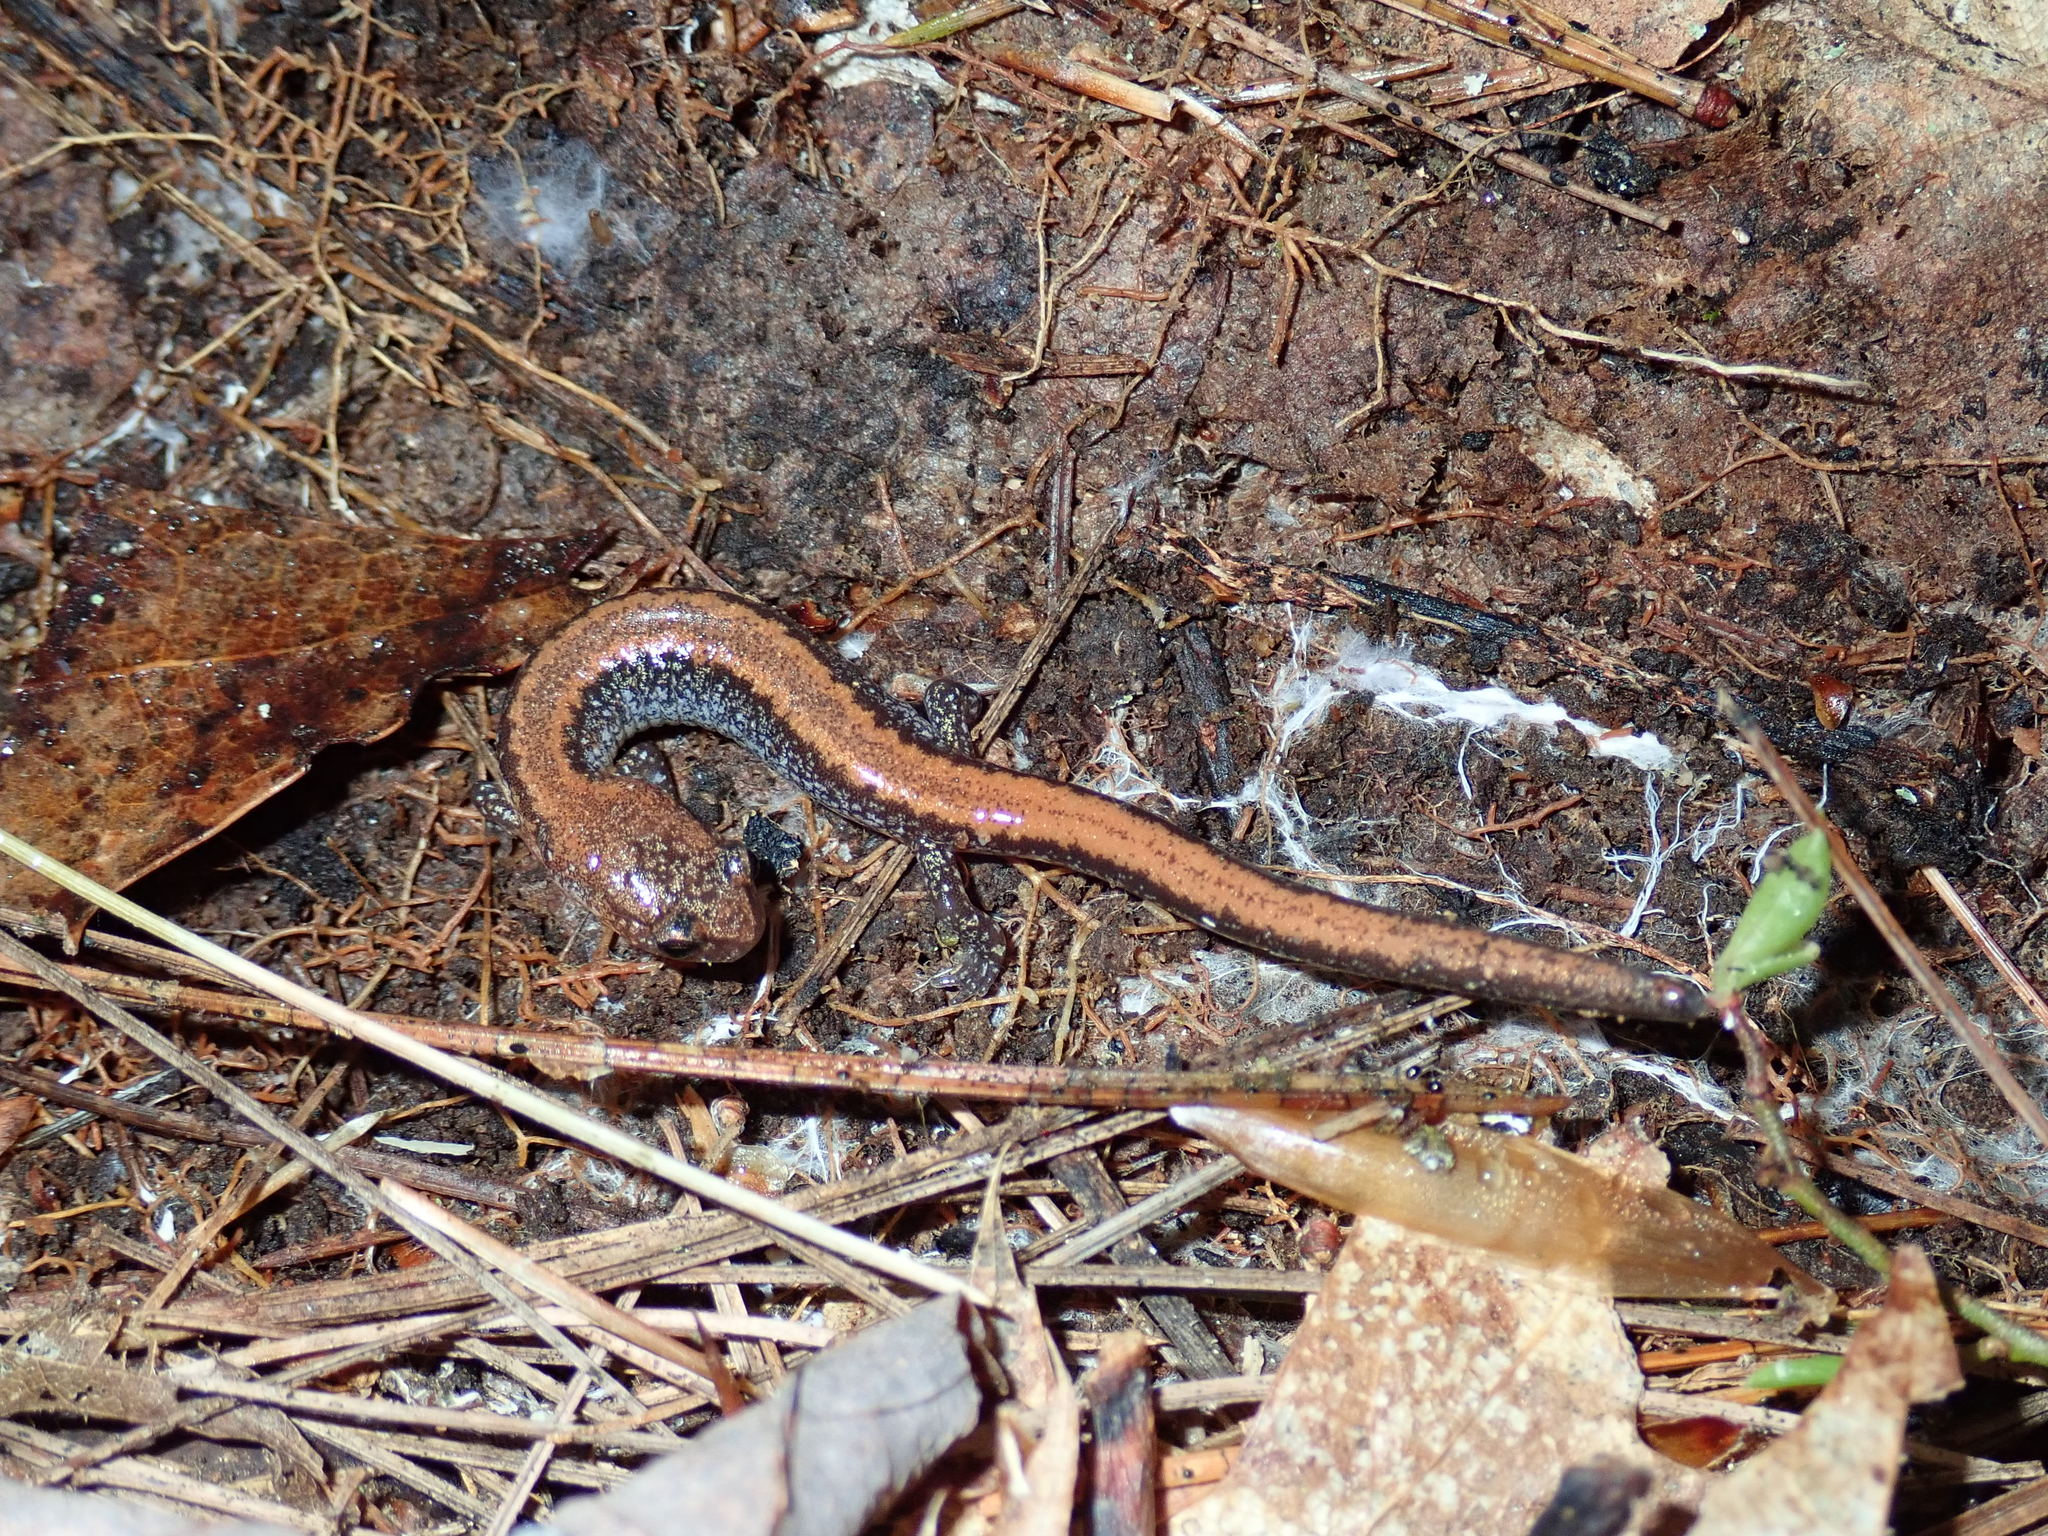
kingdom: Animalia
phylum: Chordata
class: Amphibia
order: Caudata
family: Plethodontidae
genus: Plethodon
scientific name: Plethodon cinereus
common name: Redback salamander
